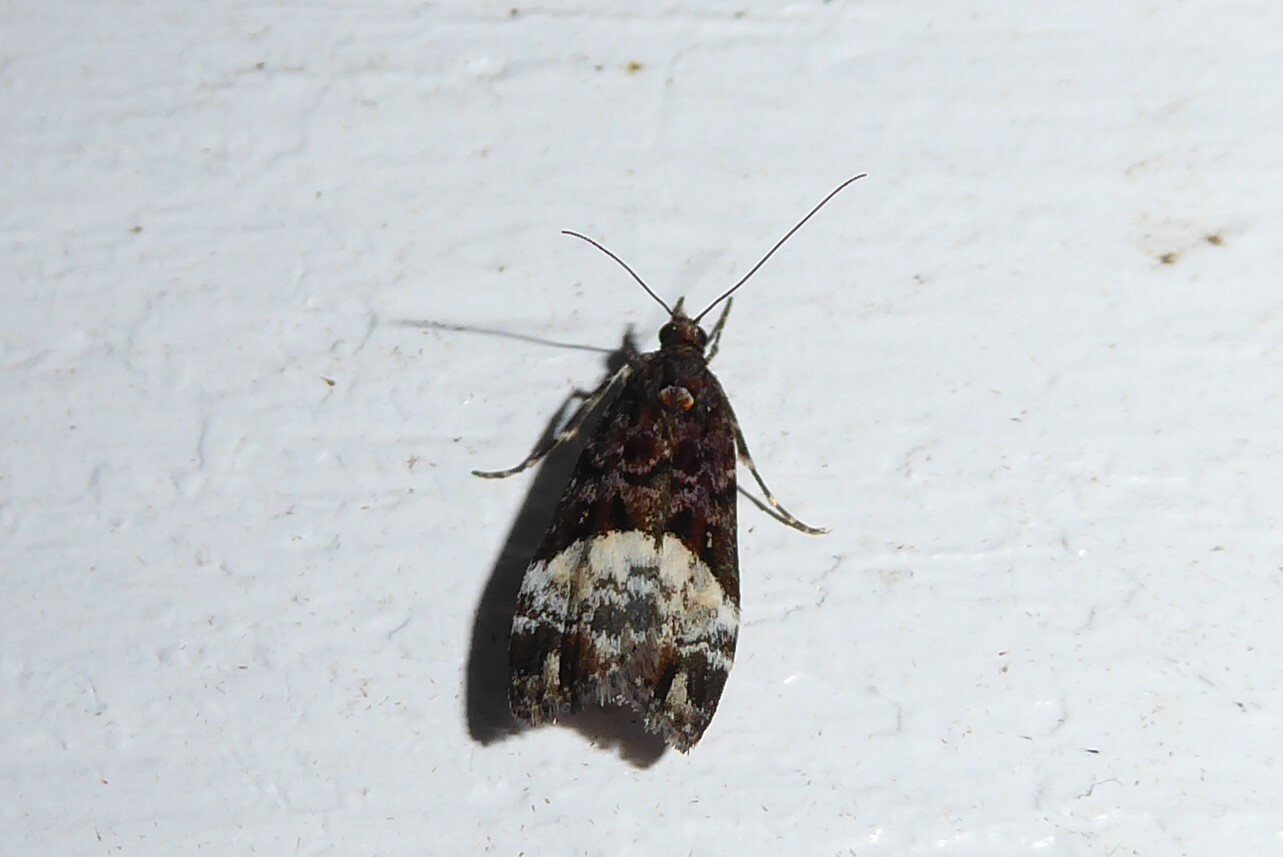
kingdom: Animalia
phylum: Arthropoda
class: Insecta
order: Lepidoptera
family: Crambidae
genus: Scoparia
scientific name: Scoparia minusculalis
